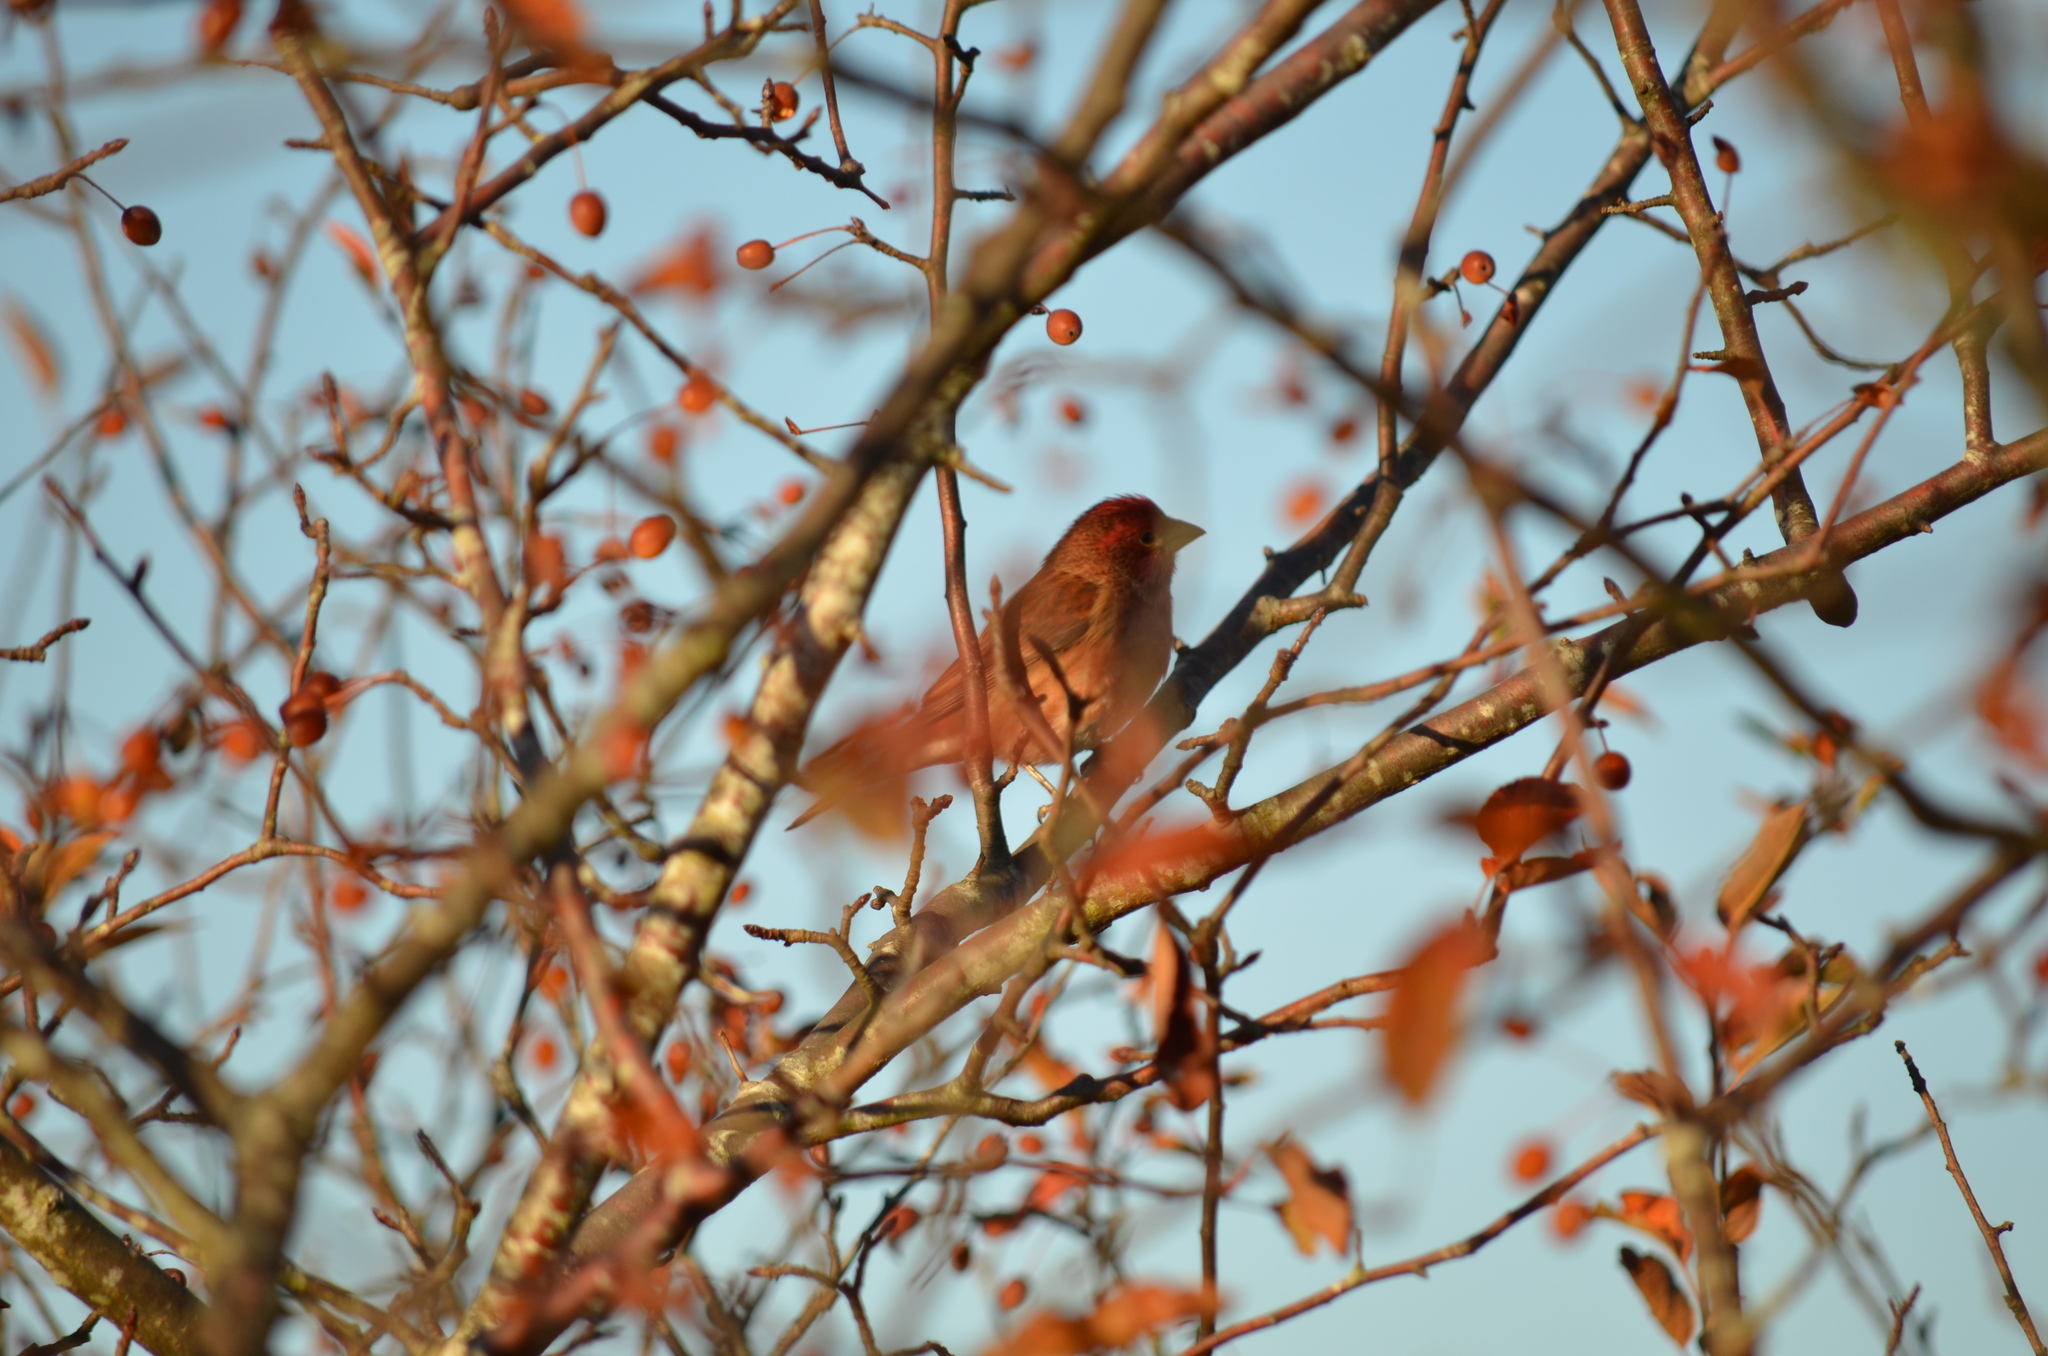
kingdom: Animalia
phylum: Chordata
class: Aves
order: Passeriformes
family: Fringillidae
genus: Haemorhous
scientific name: Haemorhous purpureus
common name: Purple finch
